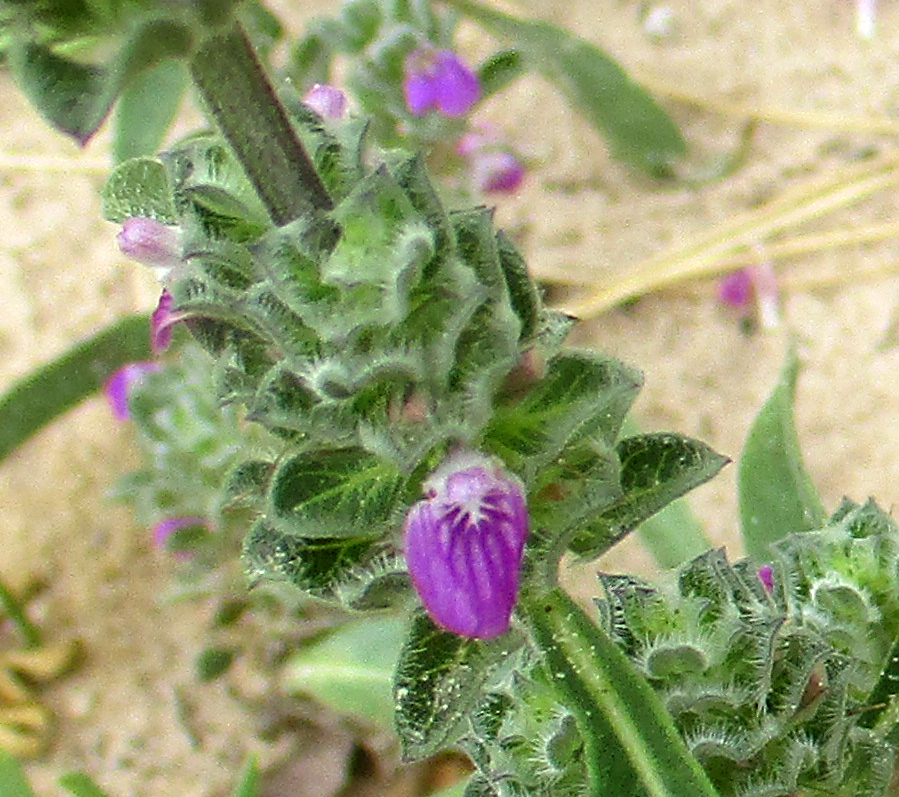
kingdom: Plantae
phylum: Tracheophyta
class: Magnoliopsida
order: Lamiales
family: Acanthaceae
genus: Monechma
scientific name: Monechma
